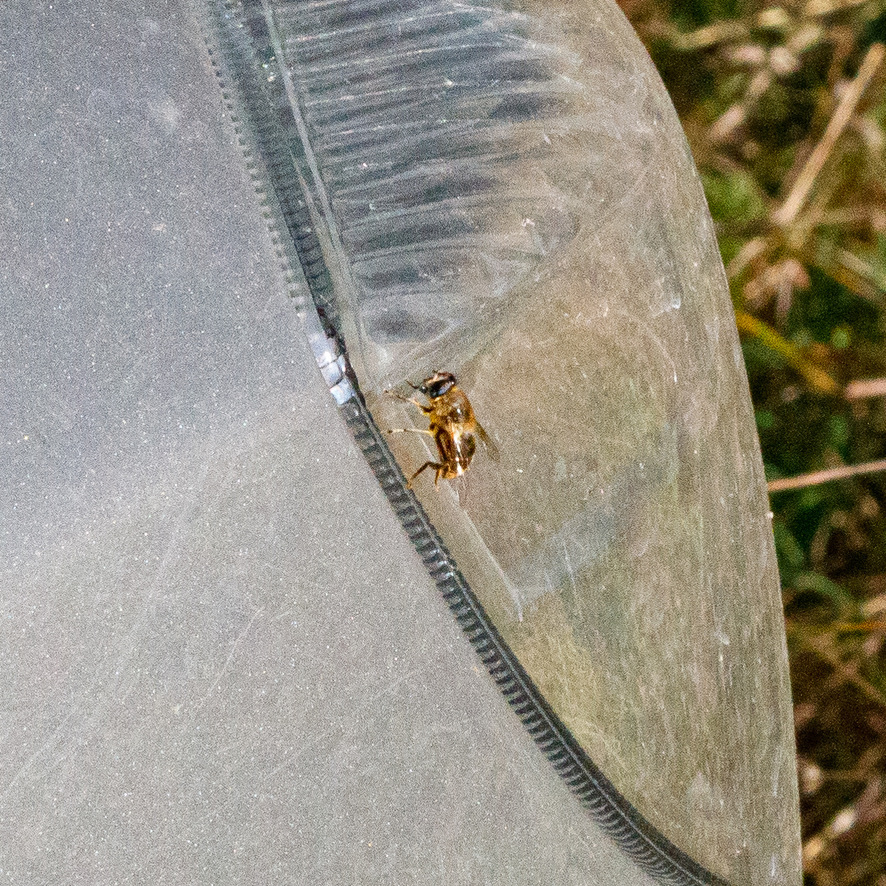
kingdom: Animalia
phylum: Arthropoda
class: Insecta
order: Diptera
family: Syrphidae
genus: Eristalis
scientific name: Eristalis tenax
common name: Drone fly
